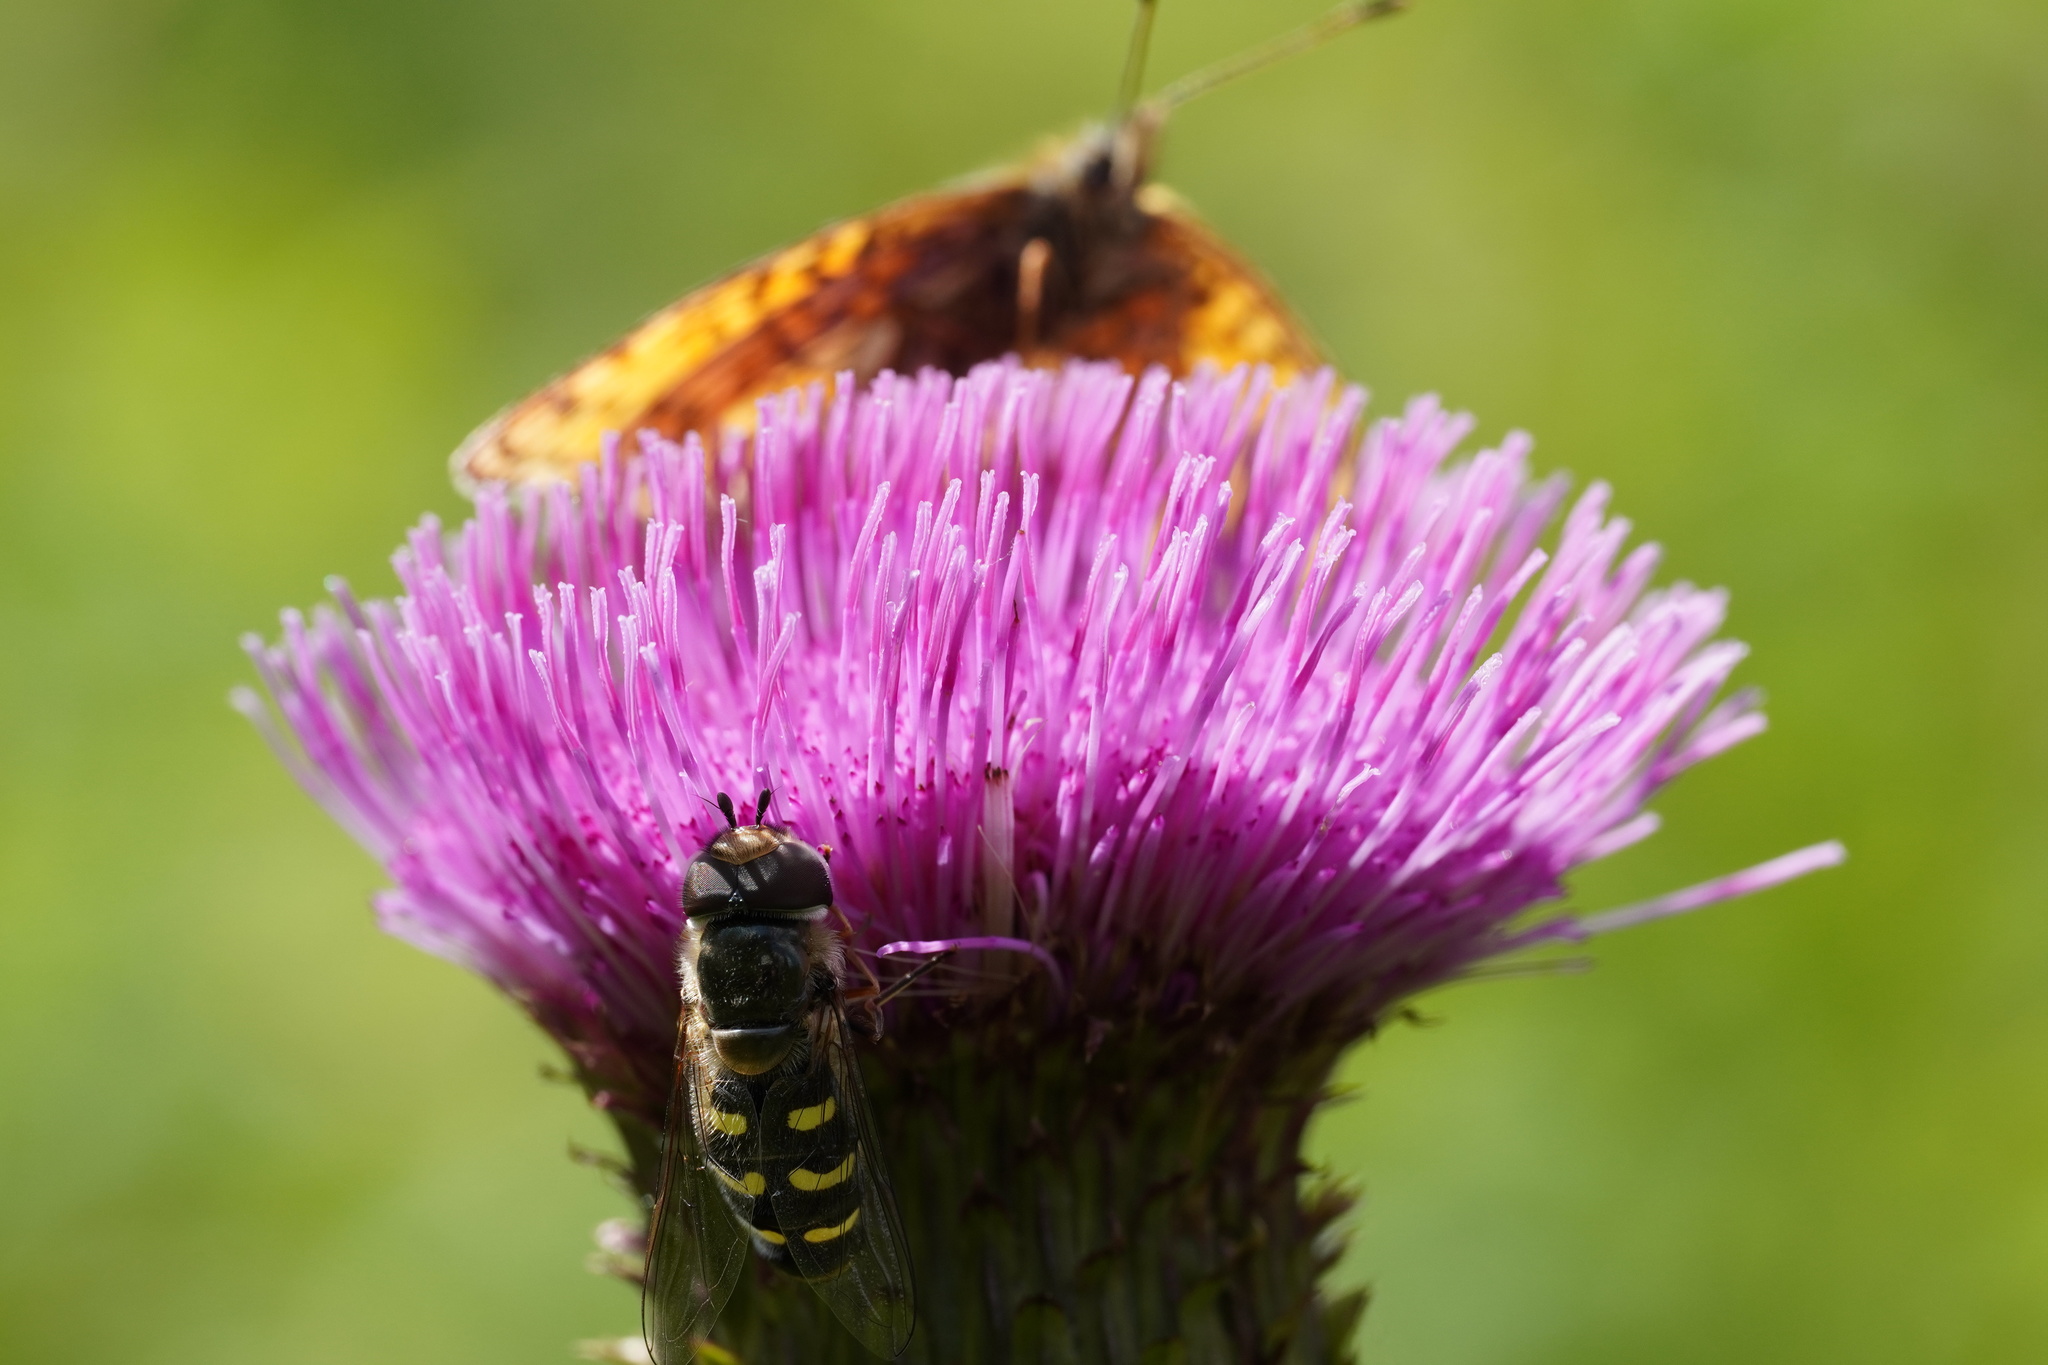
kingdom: Animalia
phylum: Arthropoda
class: Insecta
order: Diptera
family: Syrphidae
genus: Scaeva
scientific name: Scaeva selenitica
